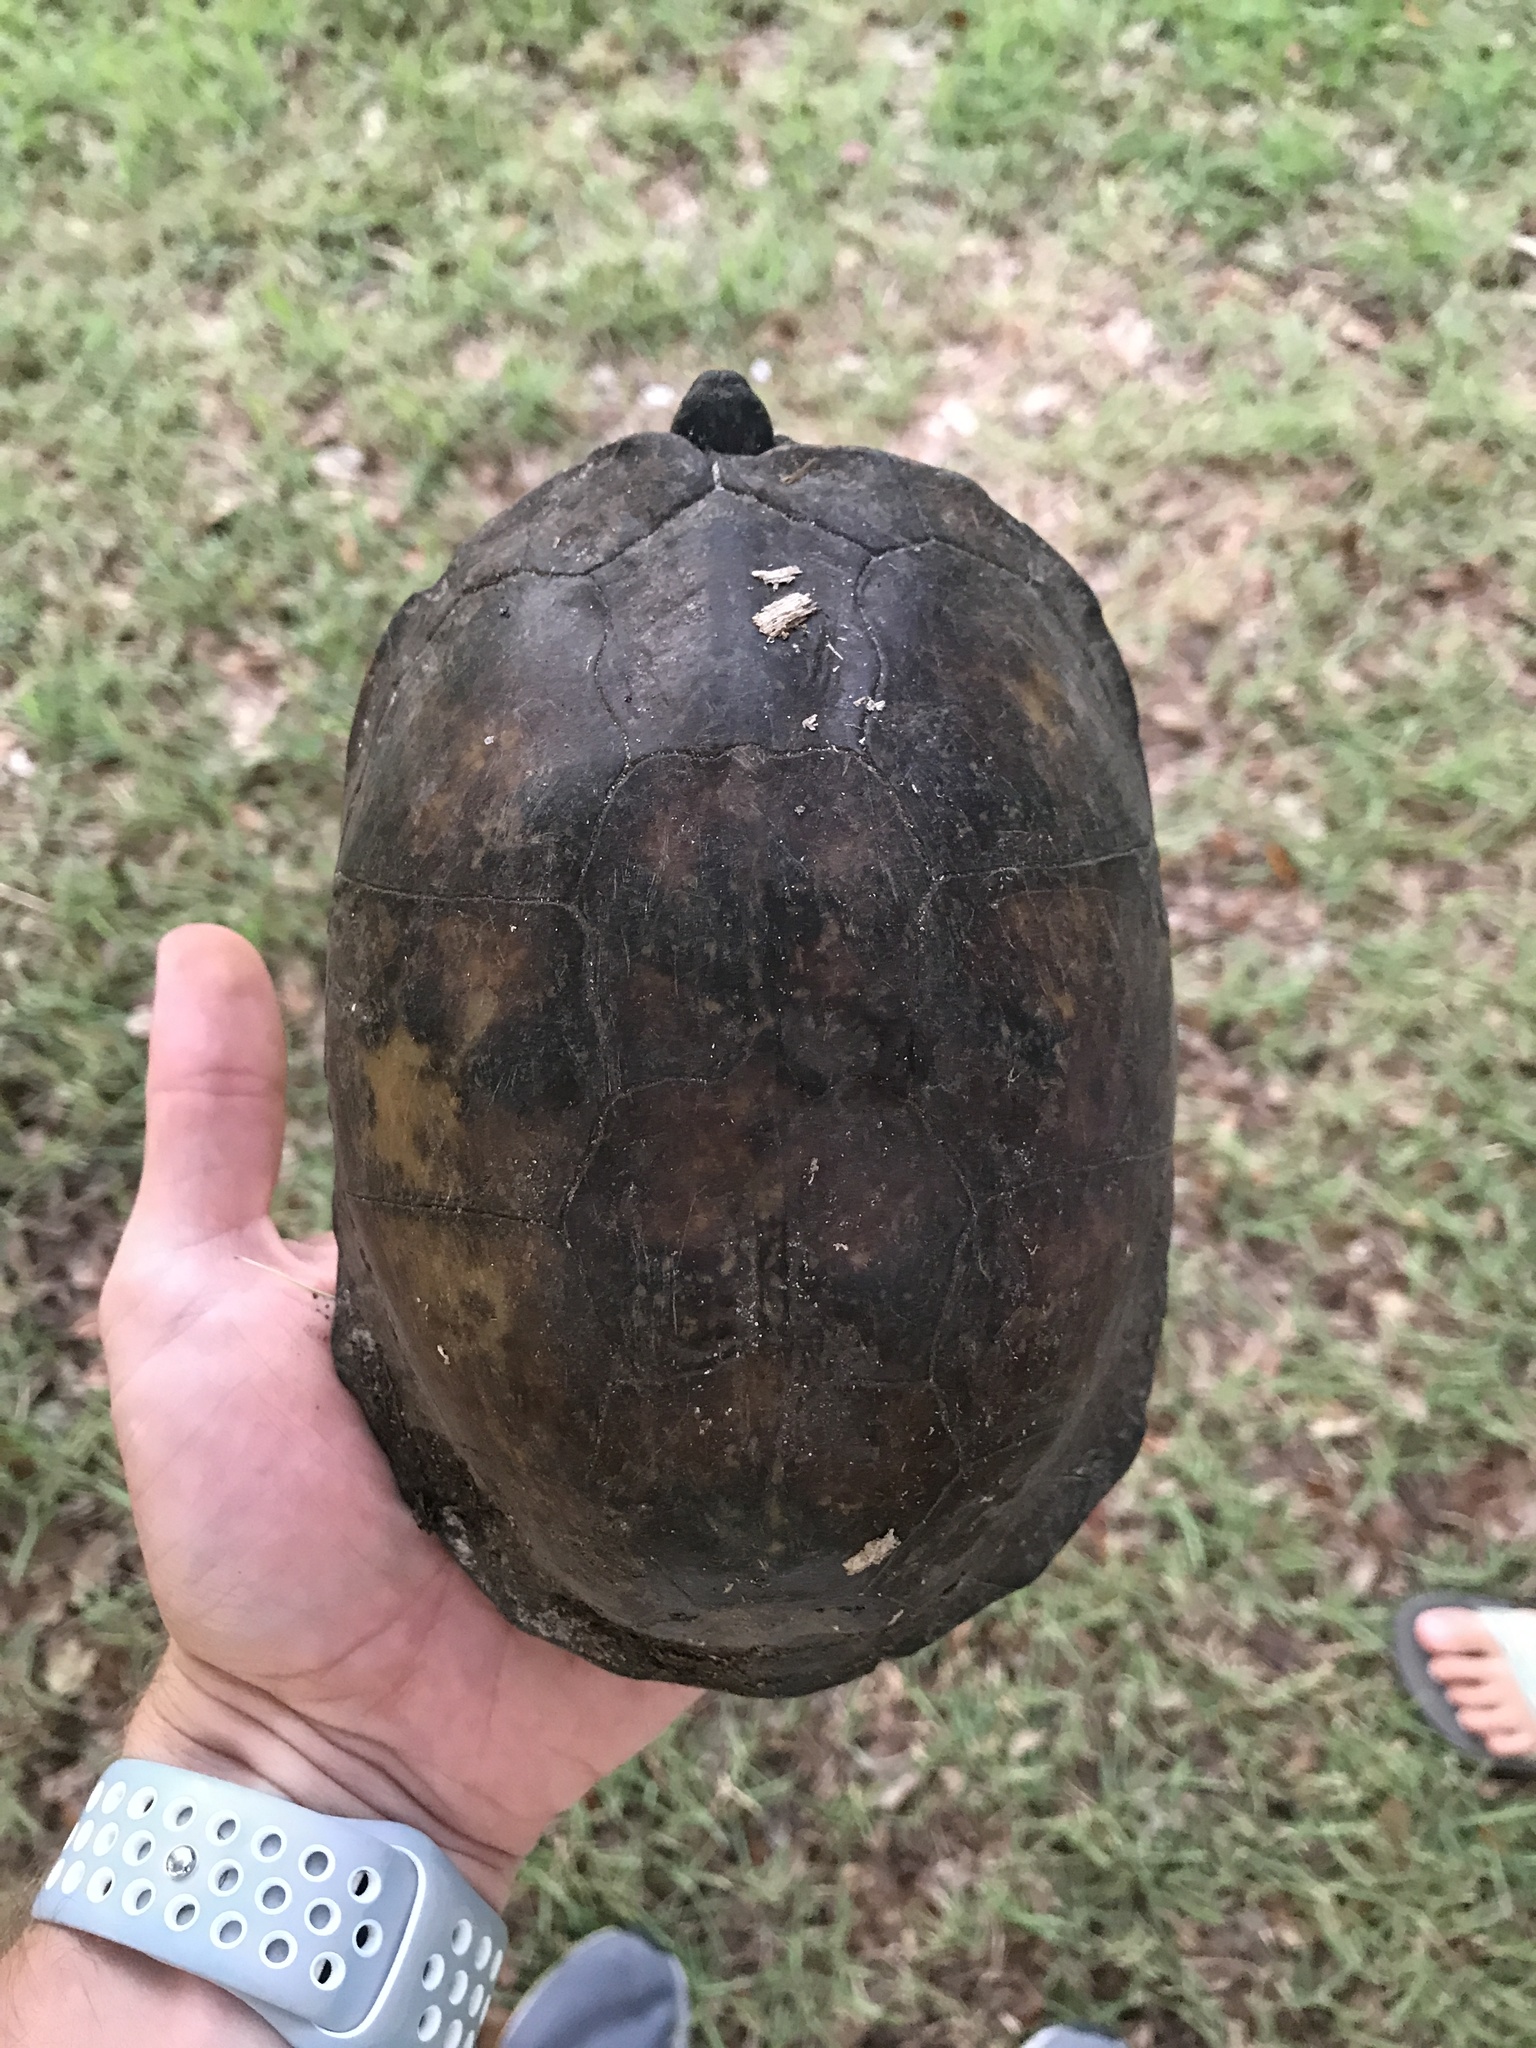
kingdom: Animalia
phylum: Chordata
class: Testudines
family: Emydidae
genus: Terrapene
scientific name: Terrapene carolina
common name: Common box turtle
